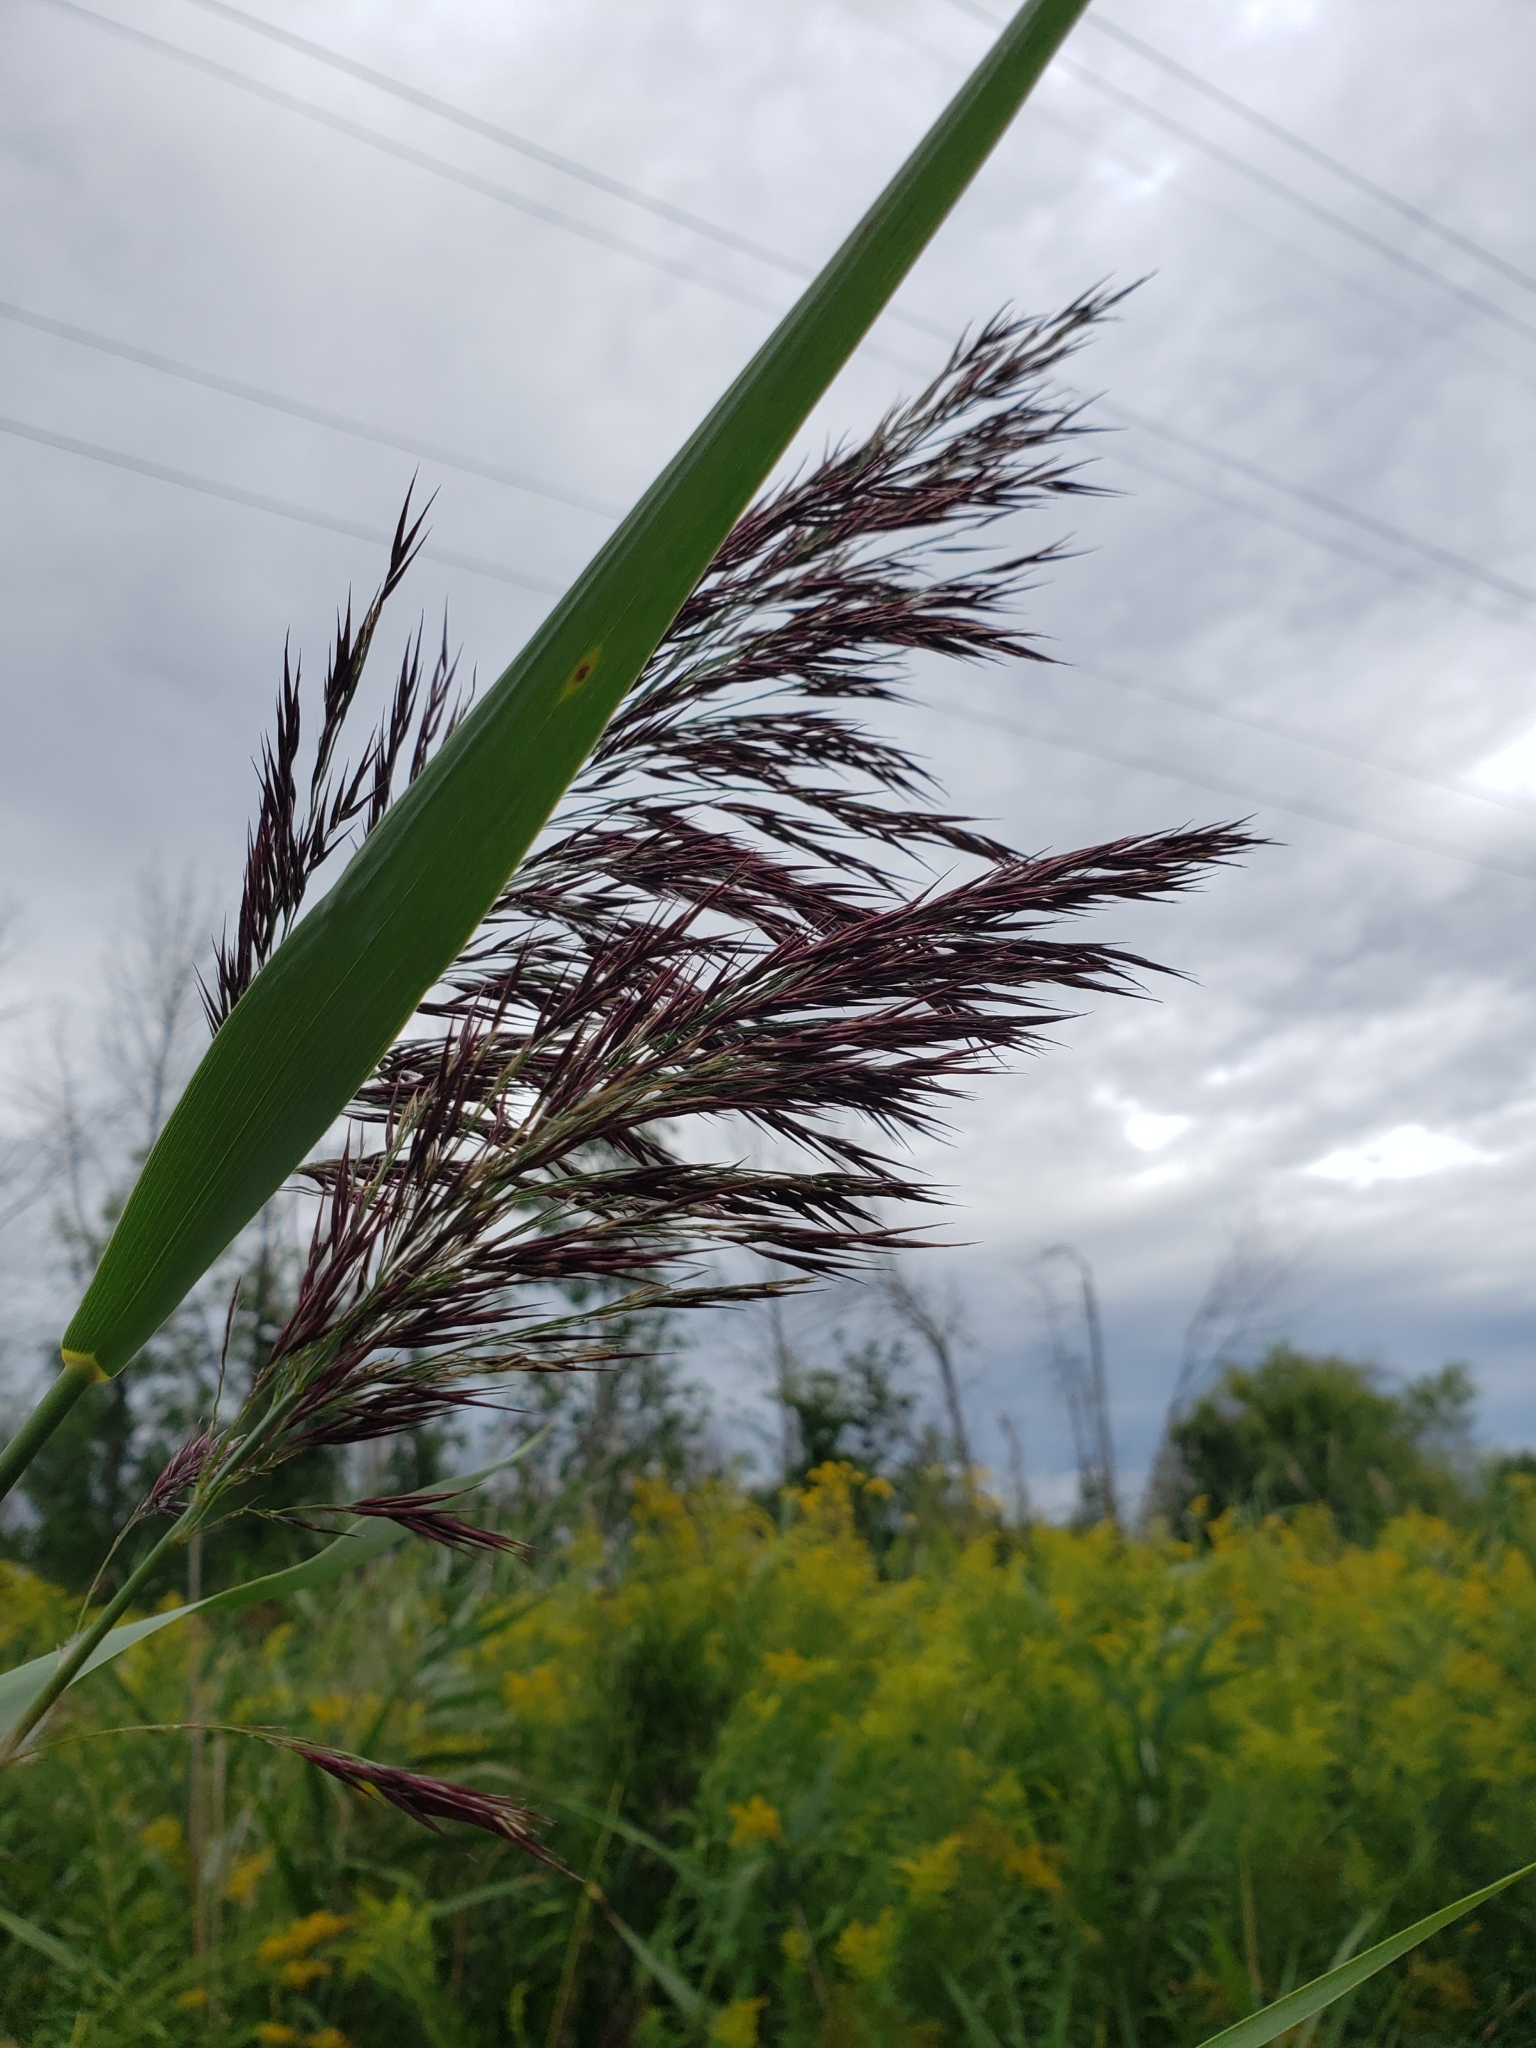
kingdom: Plantae
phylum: Tracheophyta
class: Liliopsida
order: Poales
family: Poaceae
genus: Phragmites
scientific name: Phragmites australis
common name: Common reed
